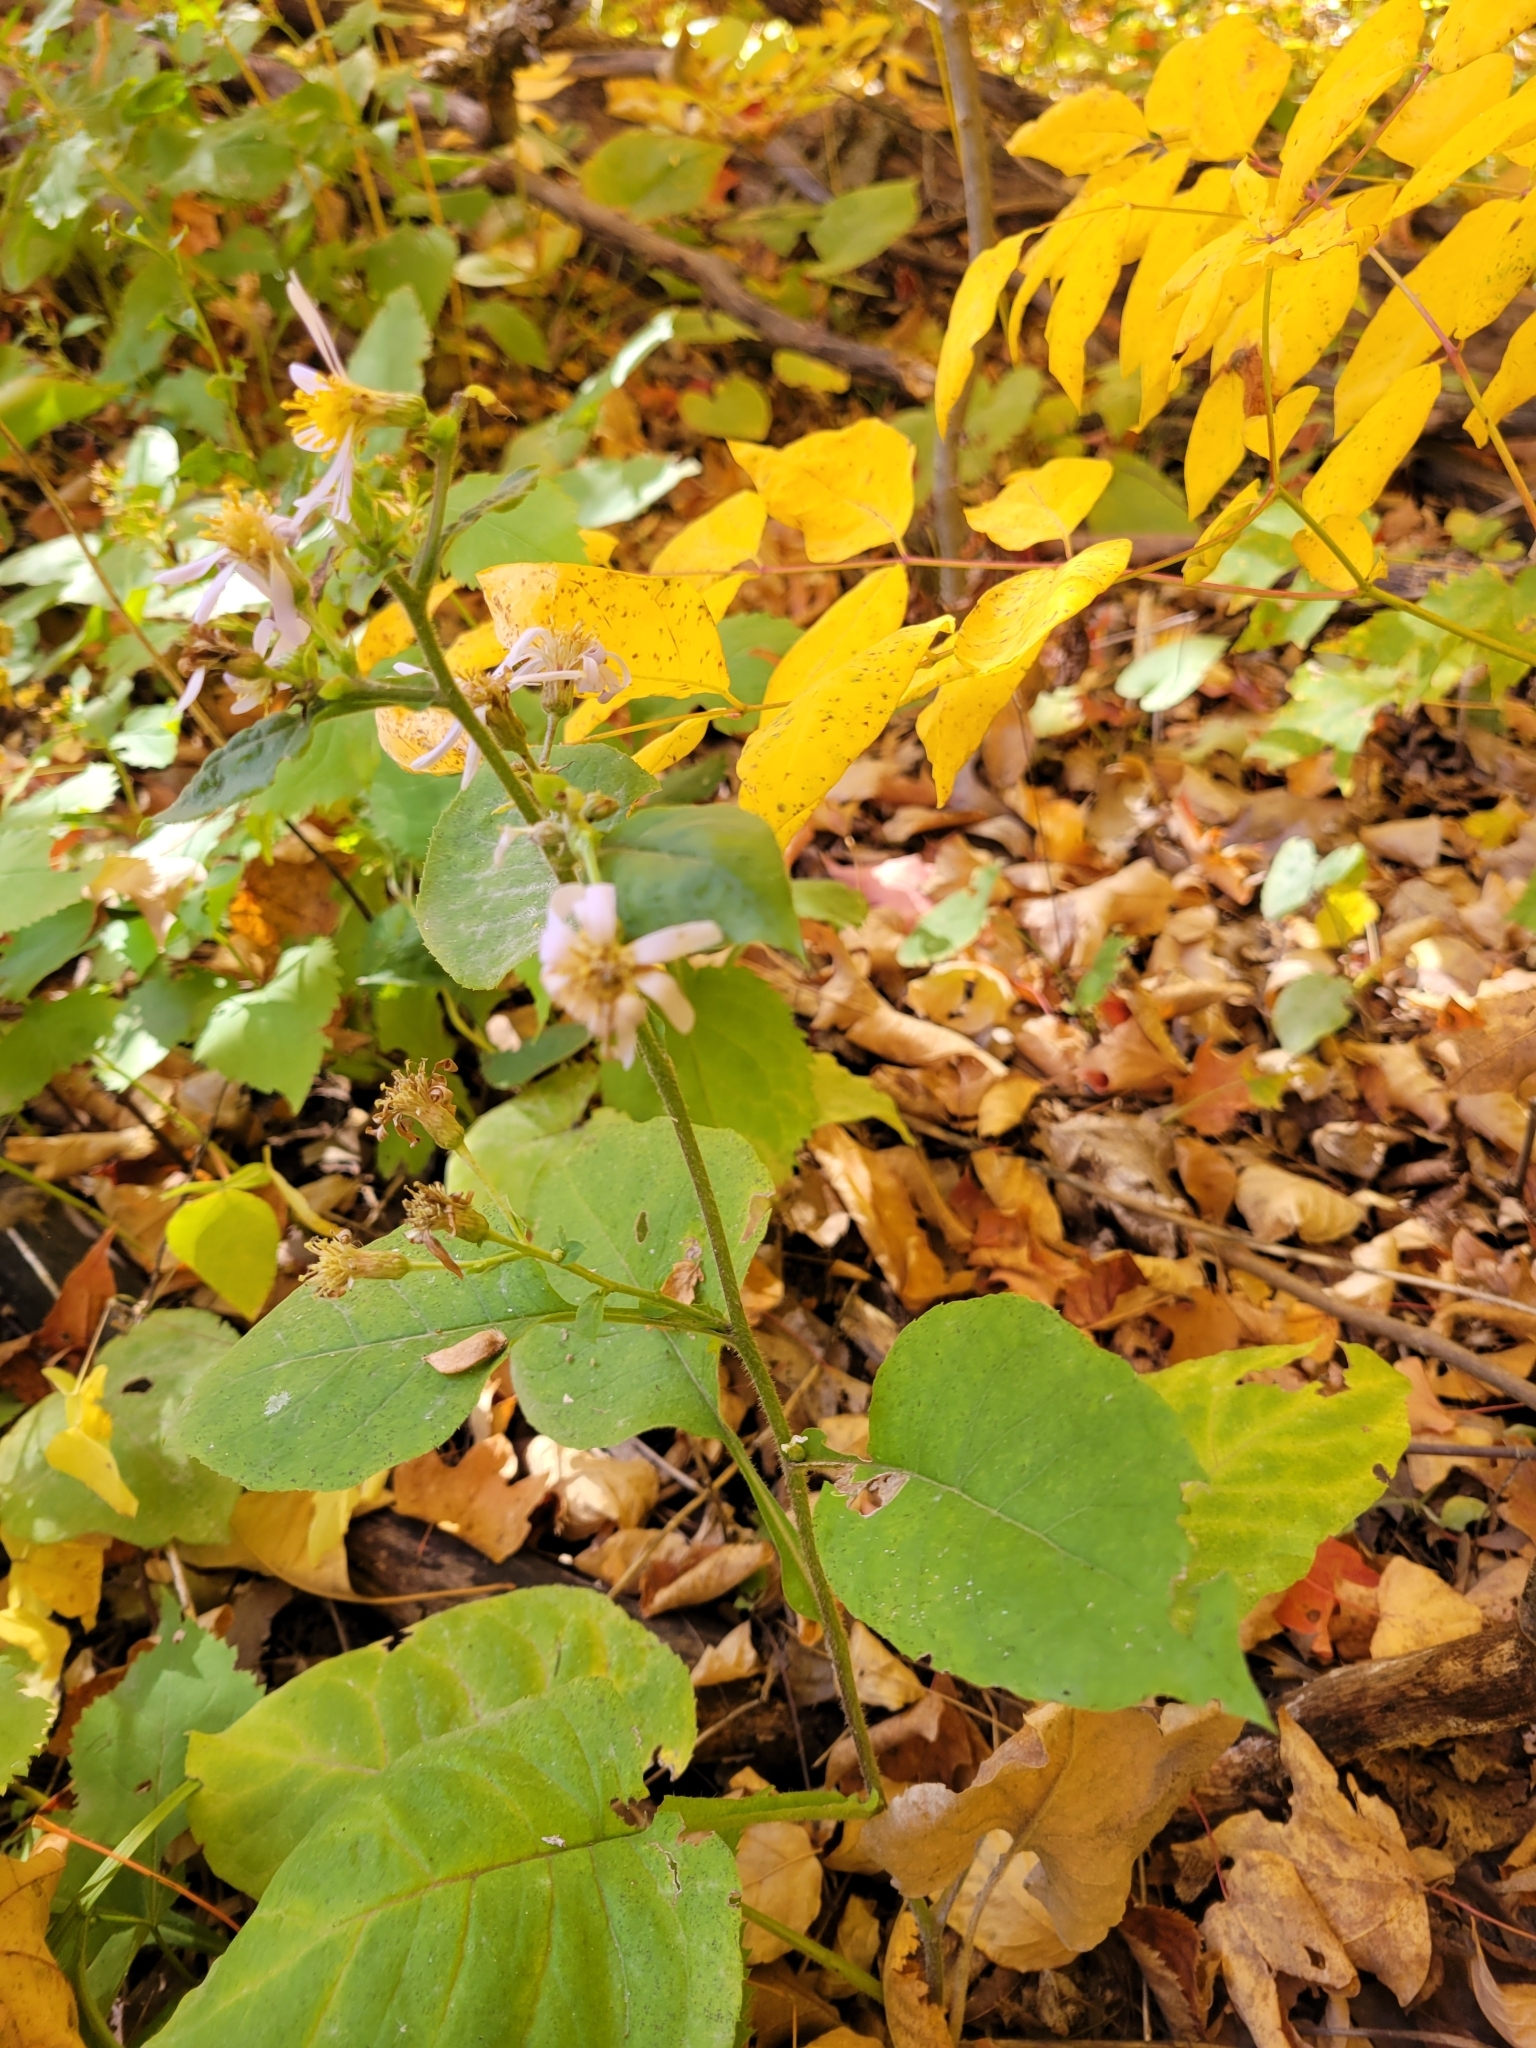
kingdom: Plantae
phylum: Tracheophyta
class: Magnoliopsida
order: Asterales
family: Asteraceae
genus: Eurybia
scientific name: Eurybia macrophylla
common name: Big-leaved aster
